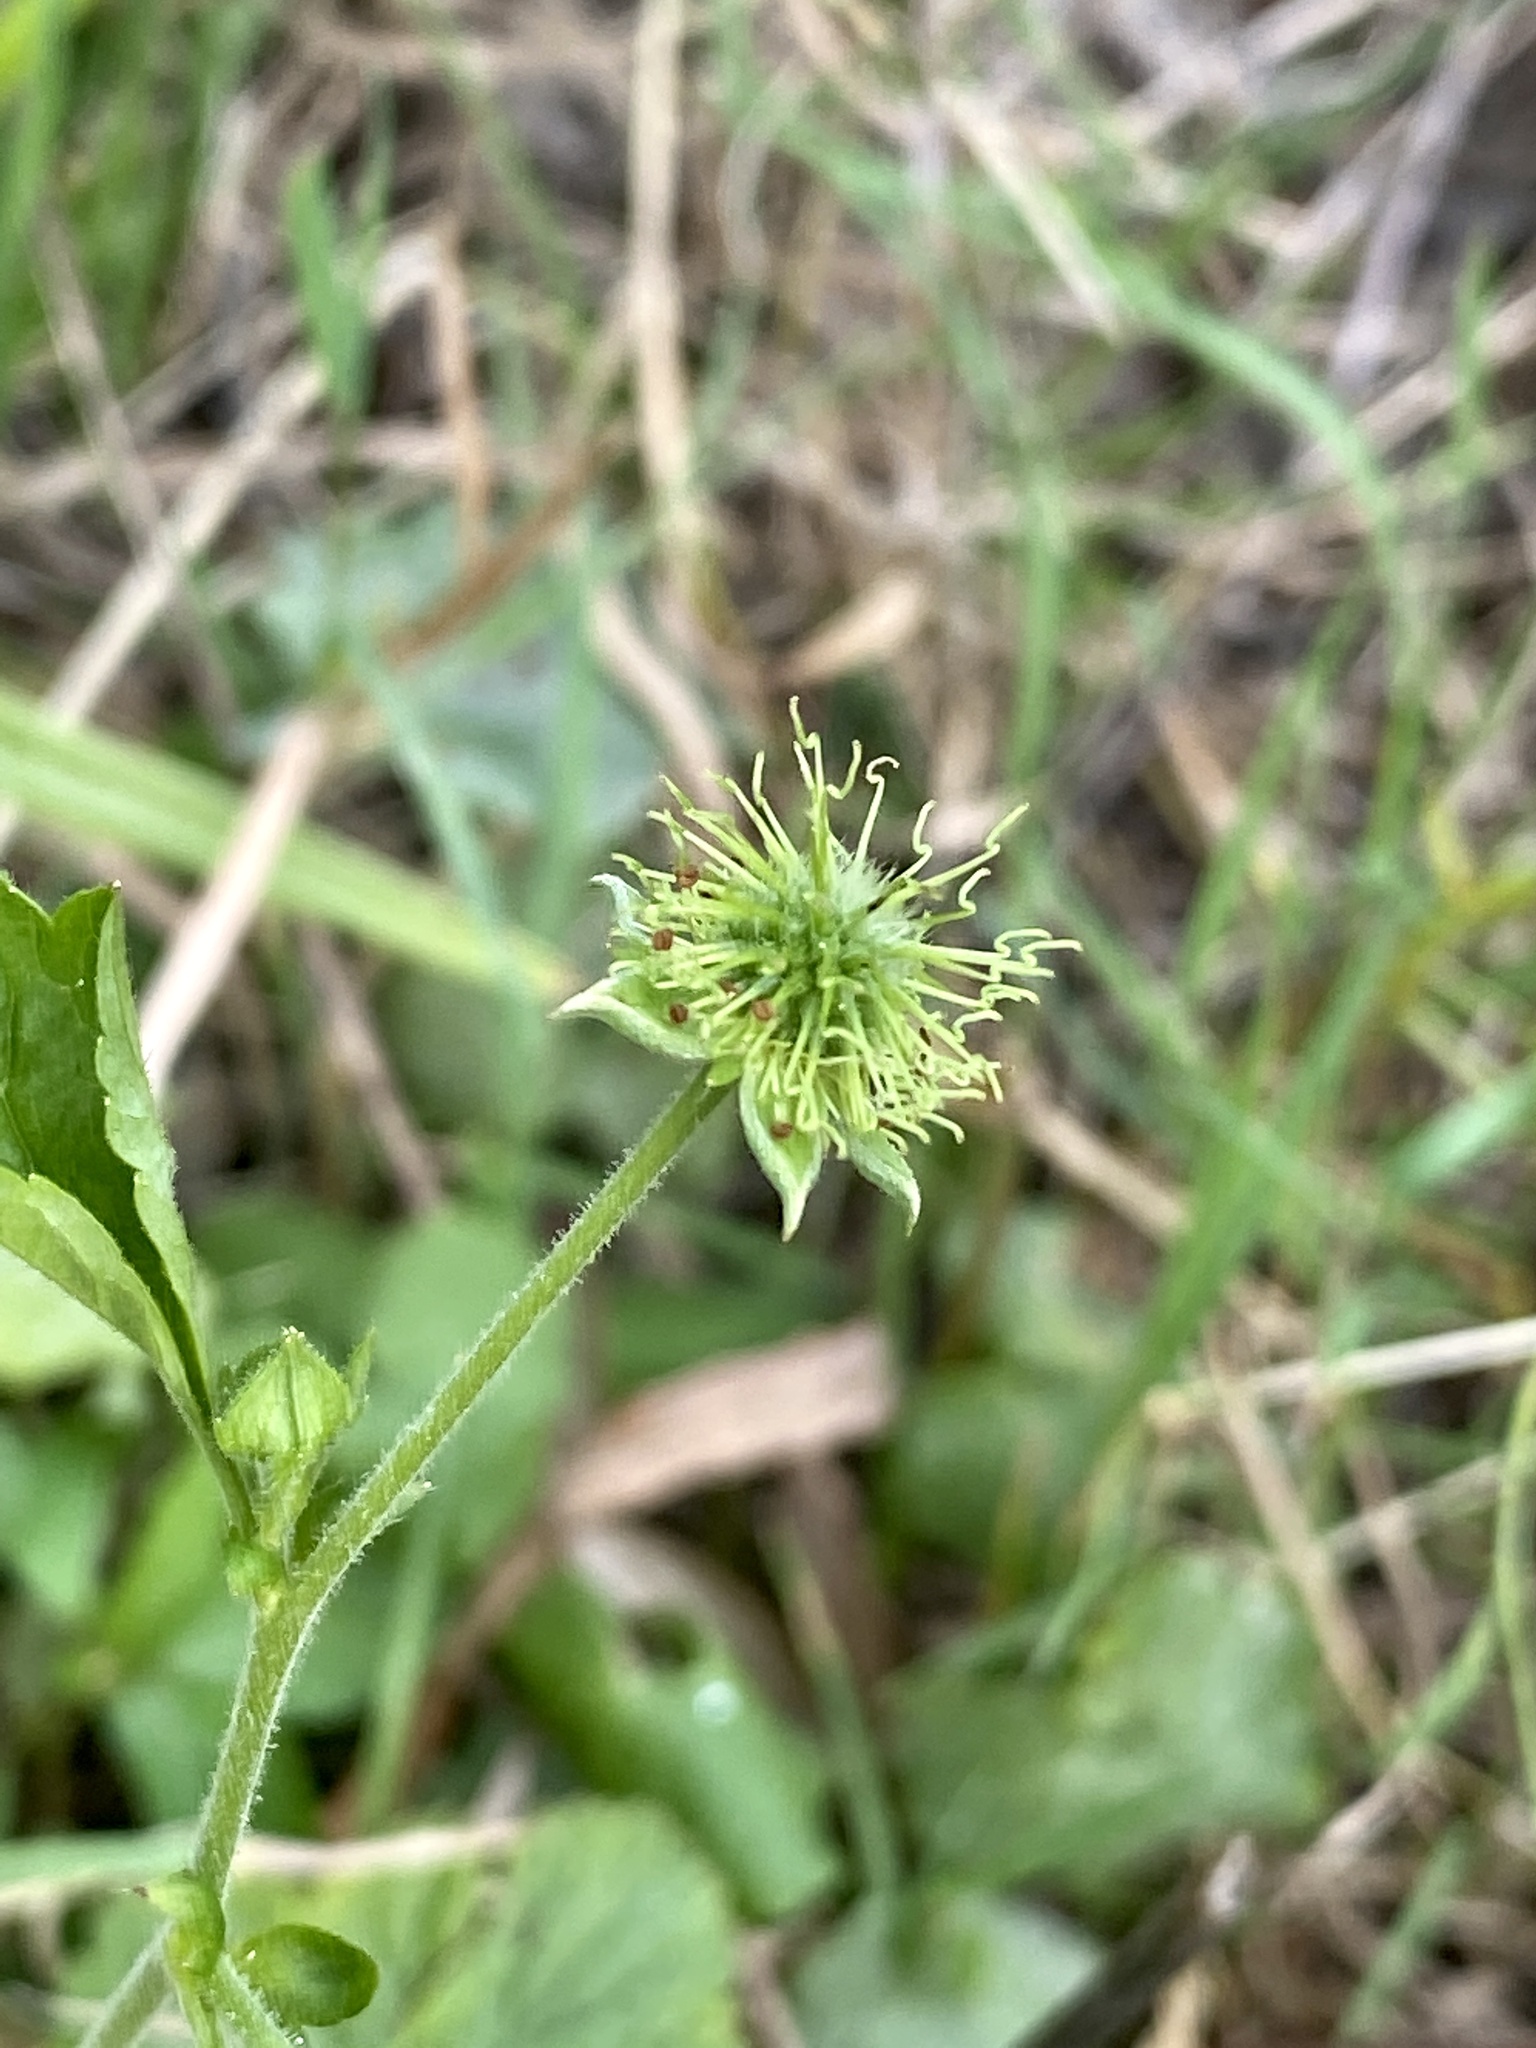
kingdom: Plantae
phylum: Tracheophyta
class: Magnoliopsida
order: Rosales
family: Rosaceae
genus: Geum
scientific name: Geum canadense
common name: White avens
